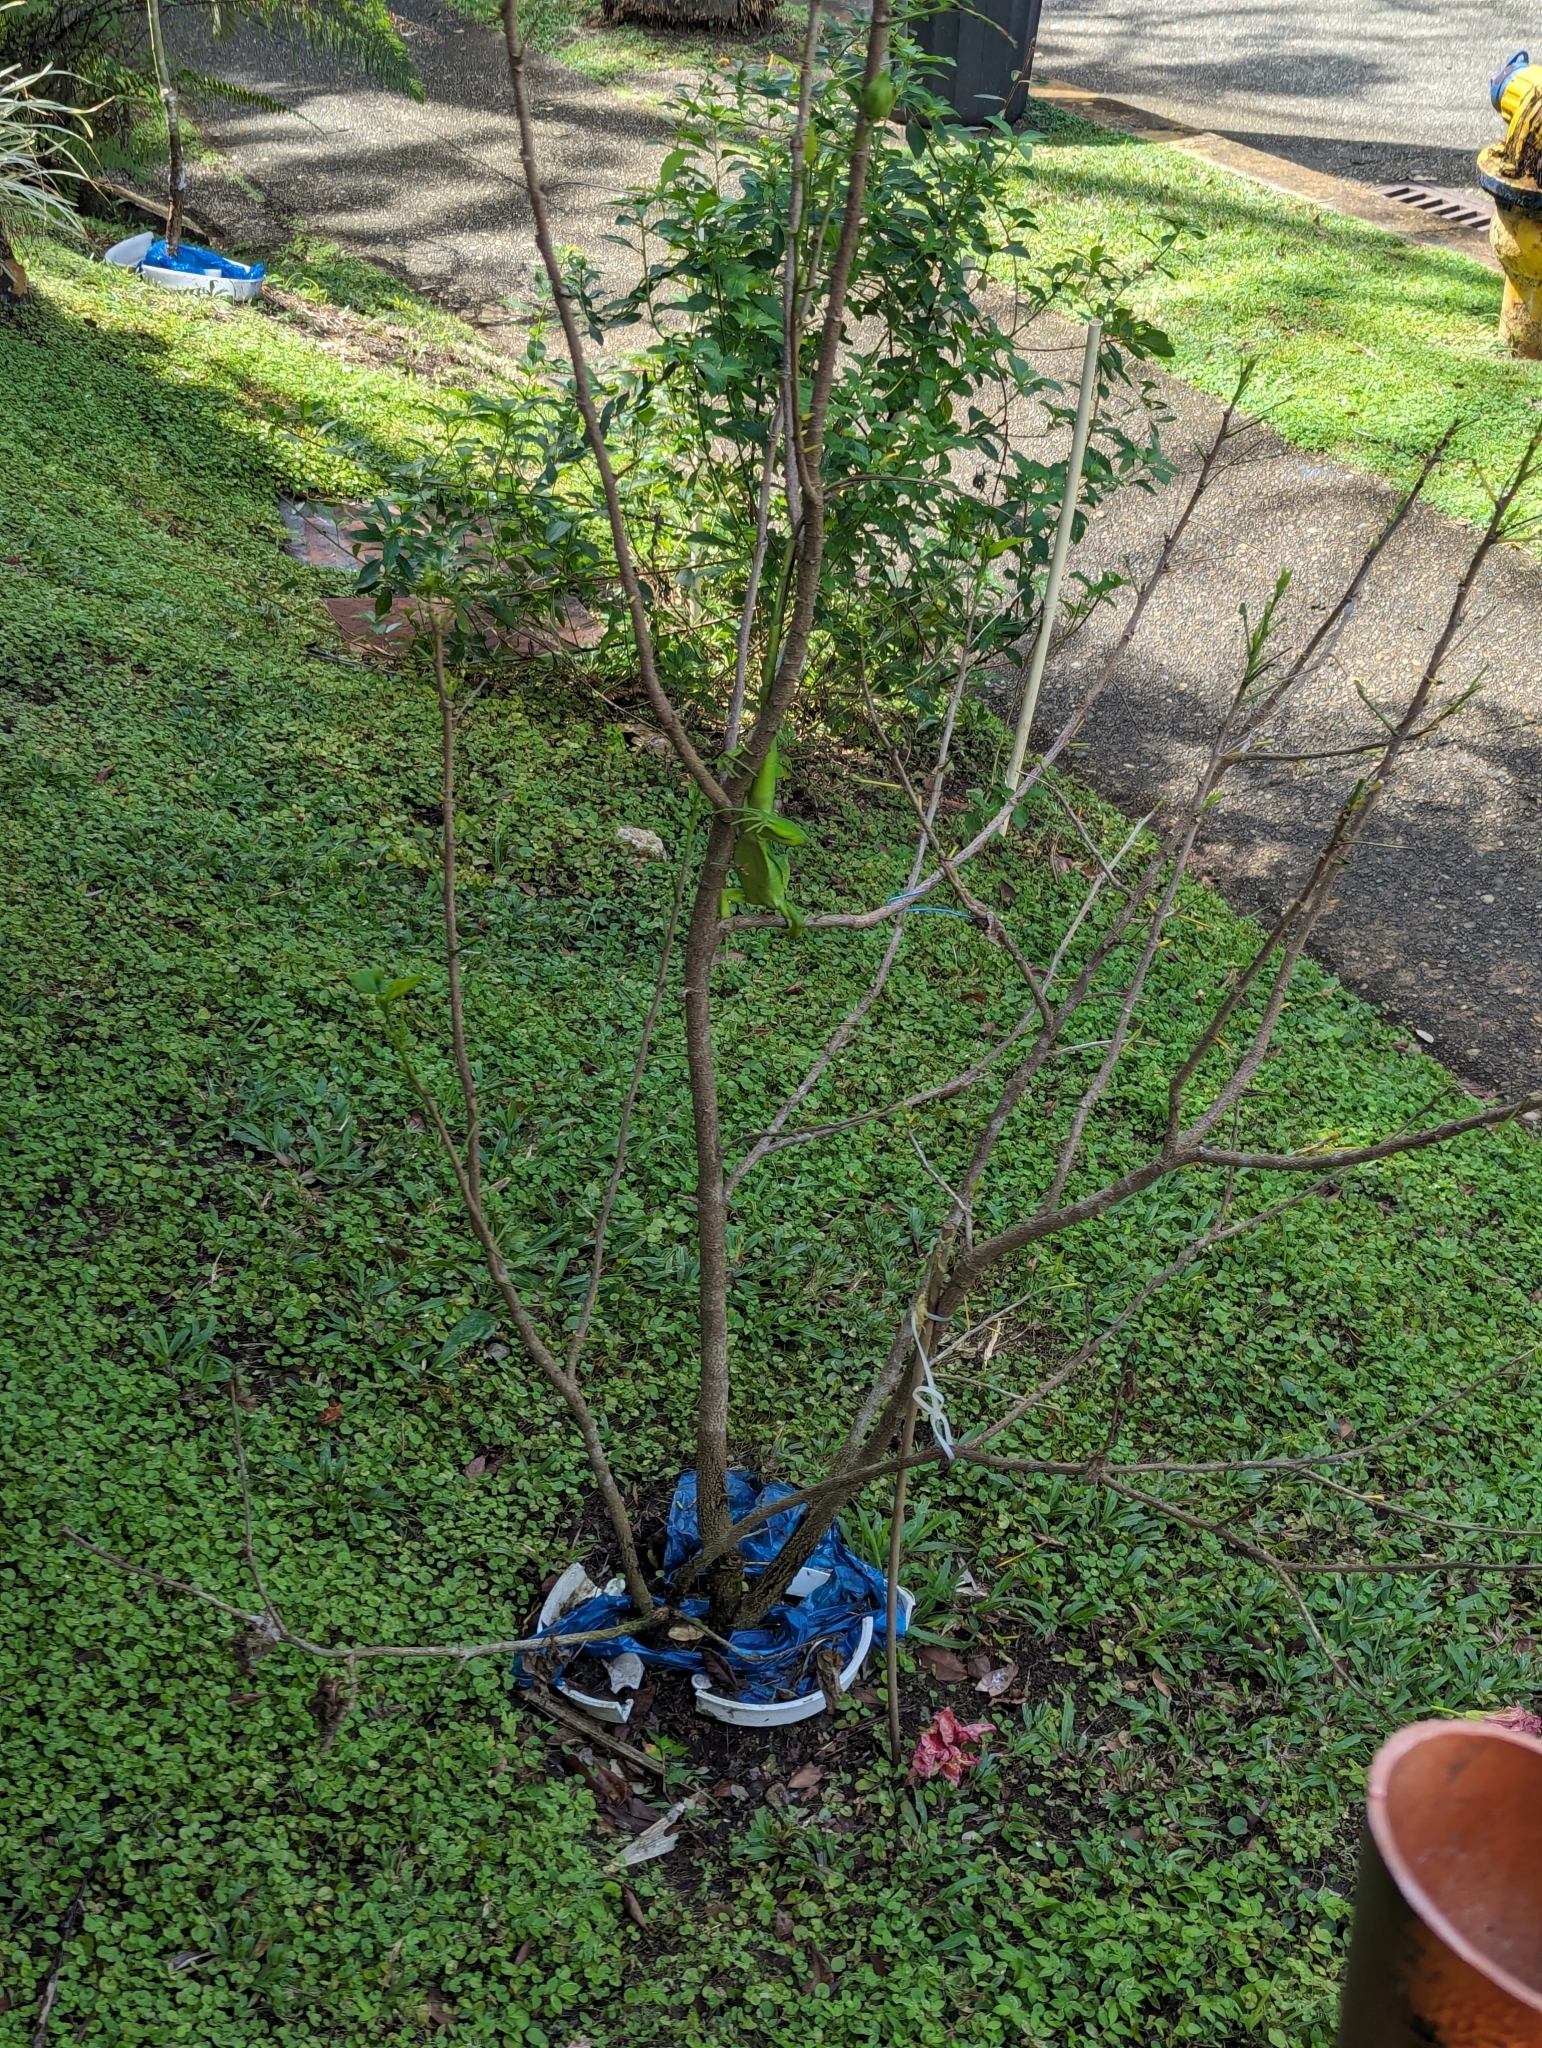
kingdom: Animalia
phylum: Chordata
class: Squamata
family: Iguanidae
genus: Iguana
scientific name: Iguana iguana
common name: Green iguana
